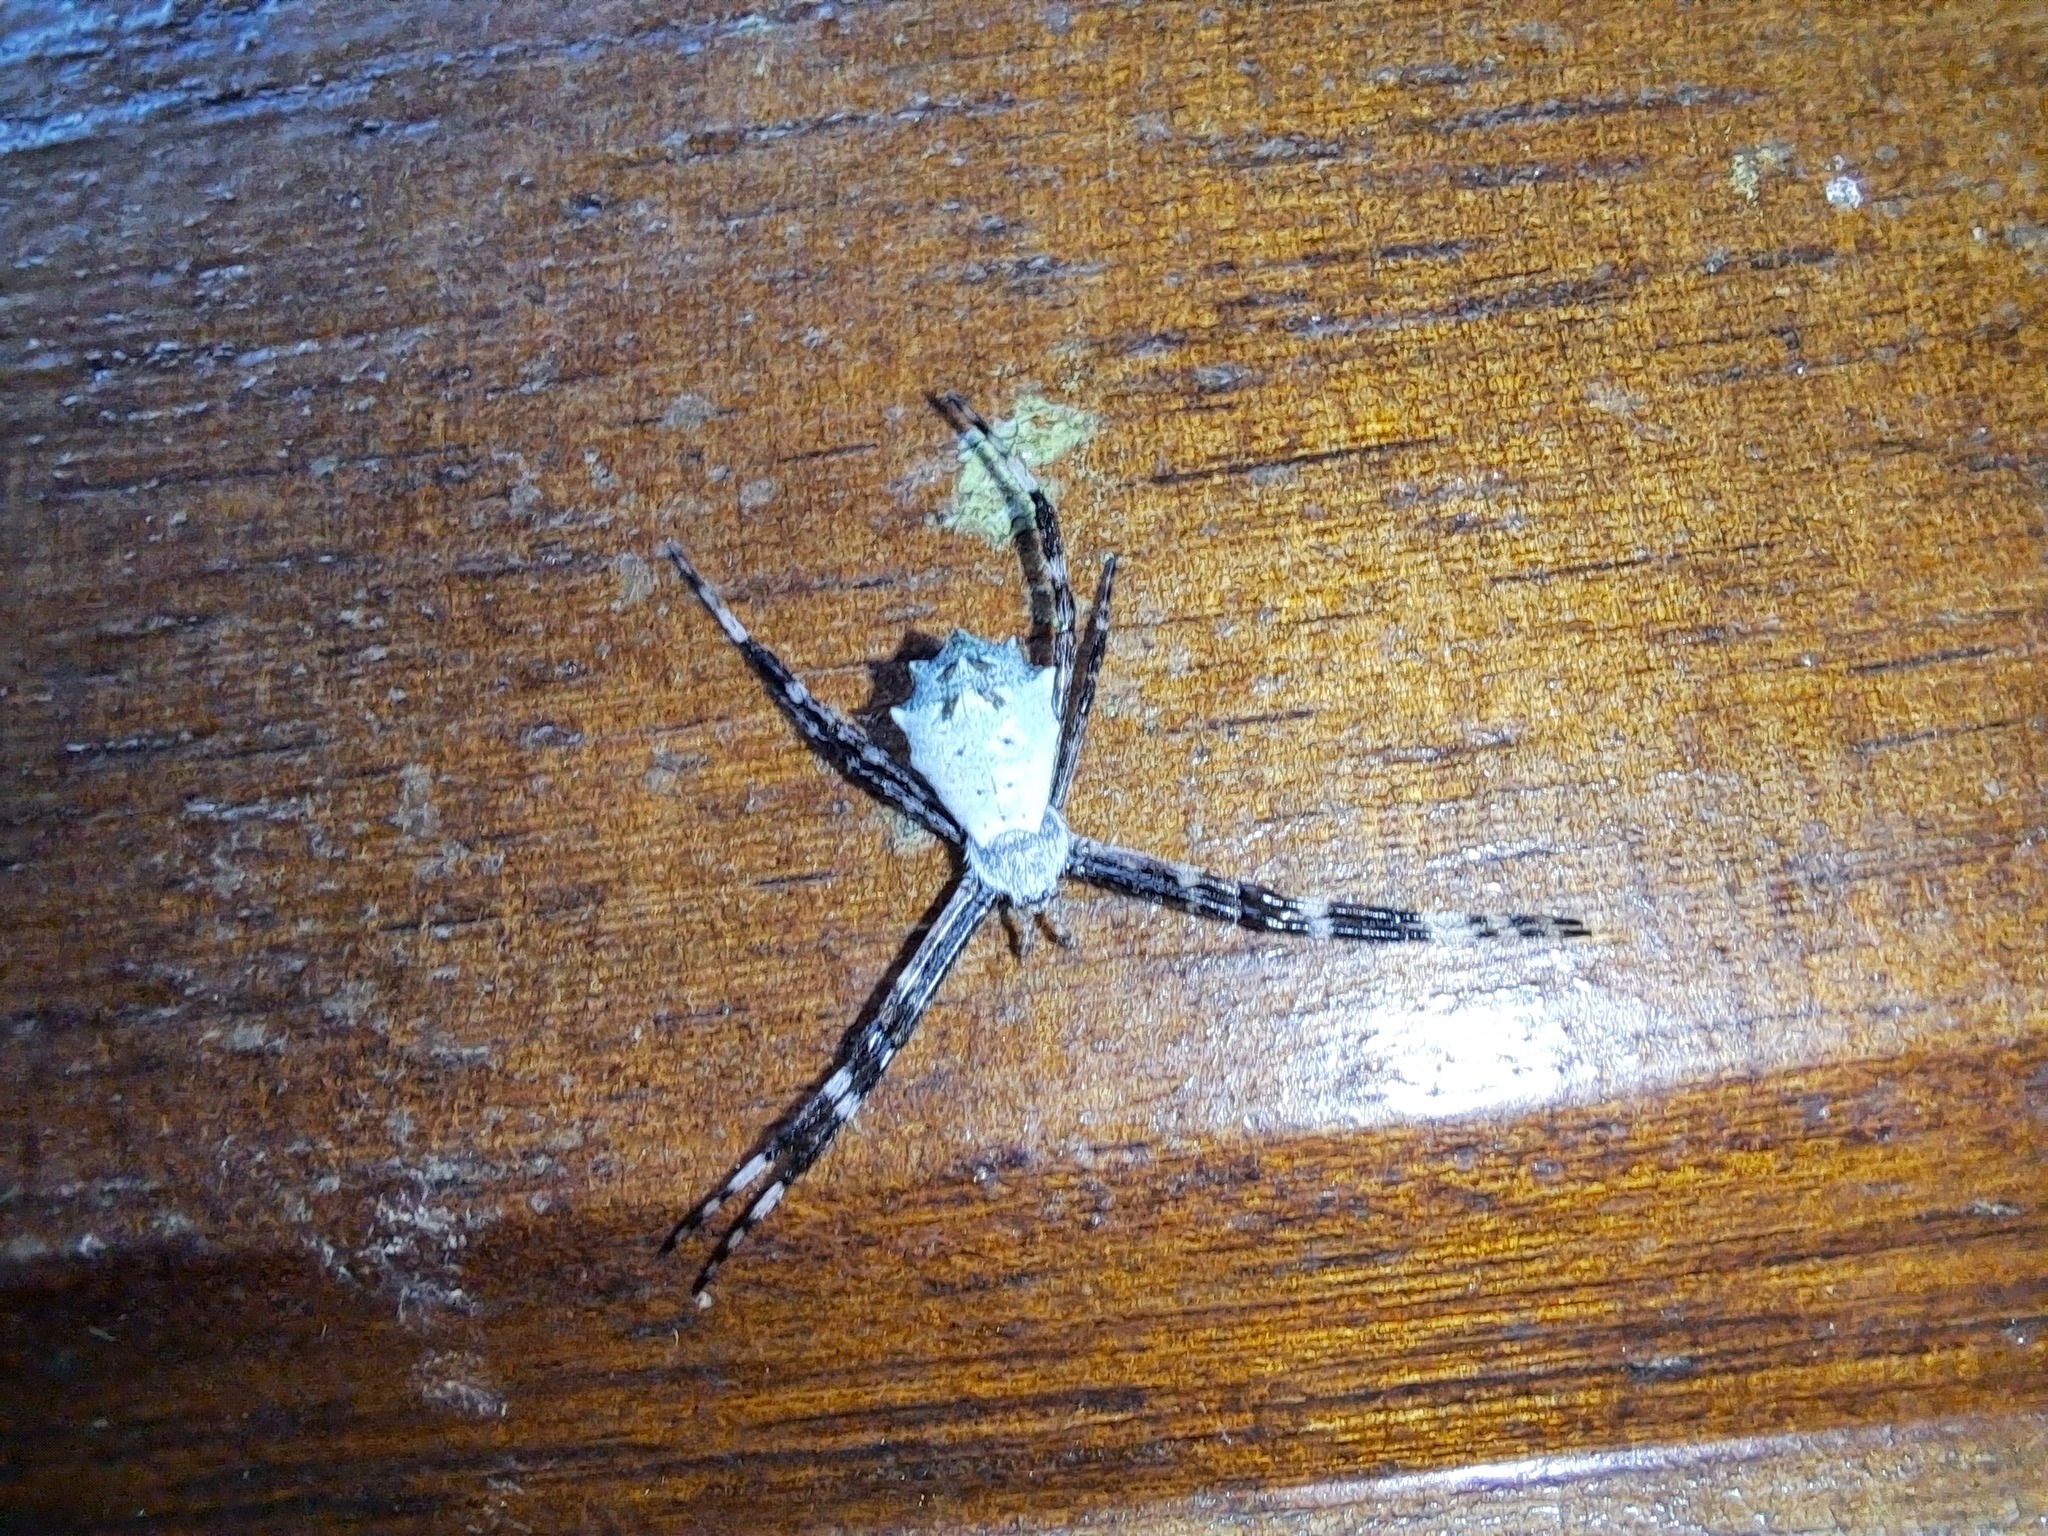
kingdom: Animalia
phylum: Arthropoda
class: Arachnida
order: Araneae
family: Araneidae
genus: Argiope
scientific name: Argiope submaronica
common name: Orb weavers
